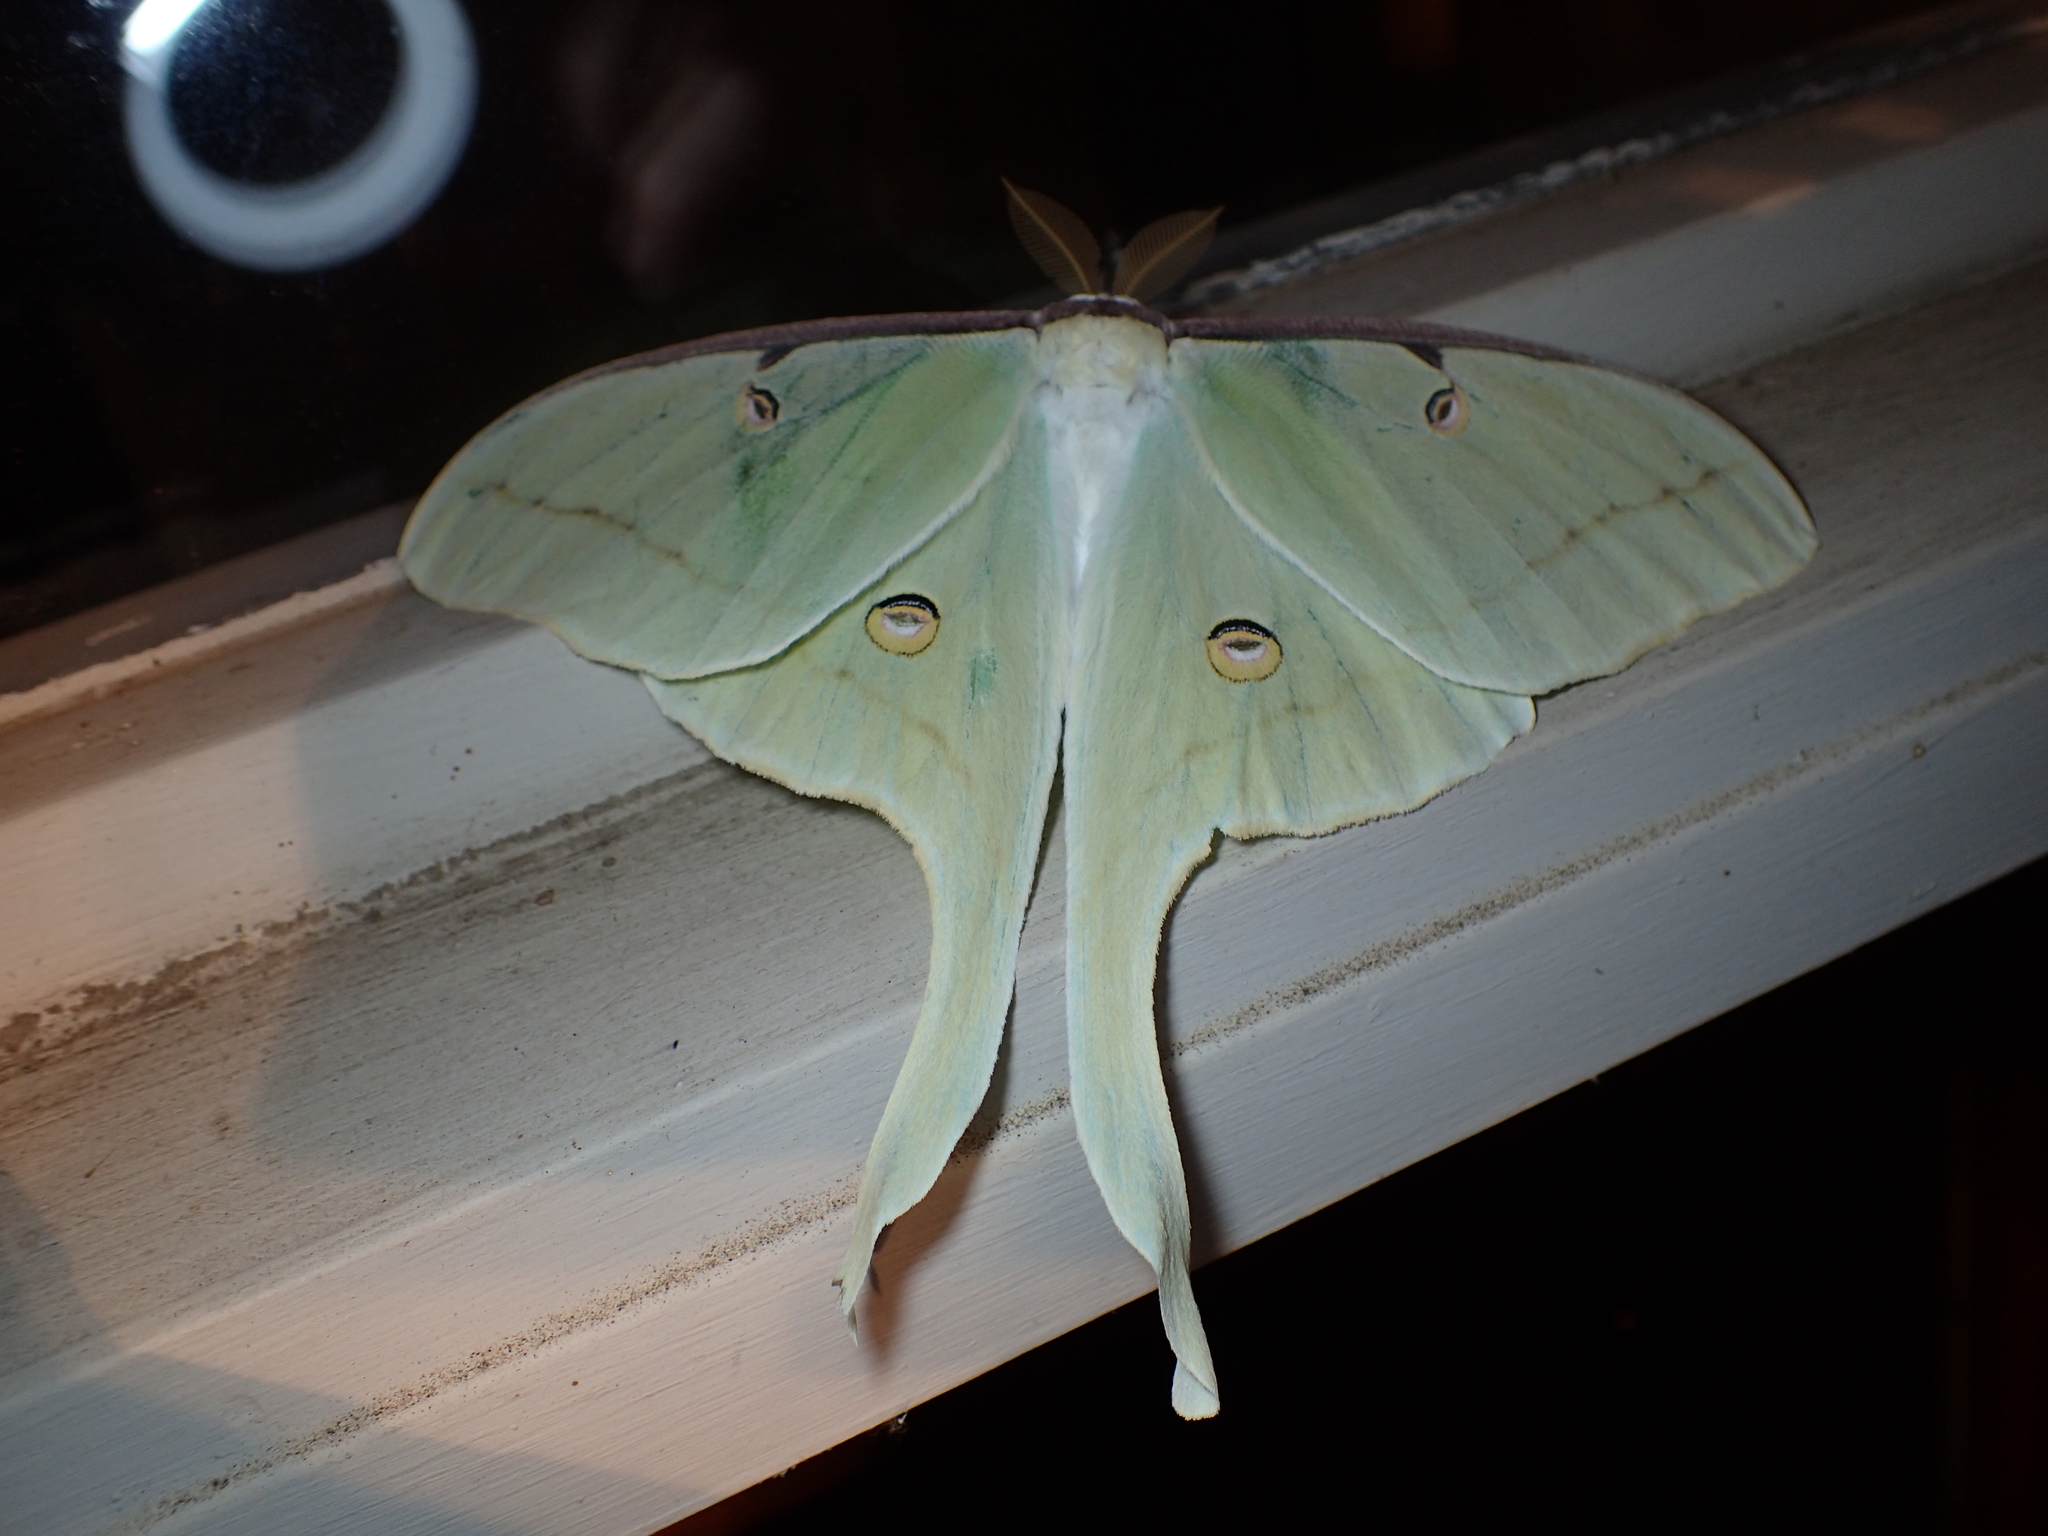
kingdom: Animalia
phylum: Arthropoda
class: Insecta
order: Lepidoptera
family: Saturniidae
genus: Actias
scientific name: Actias luna
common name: Luna moth
